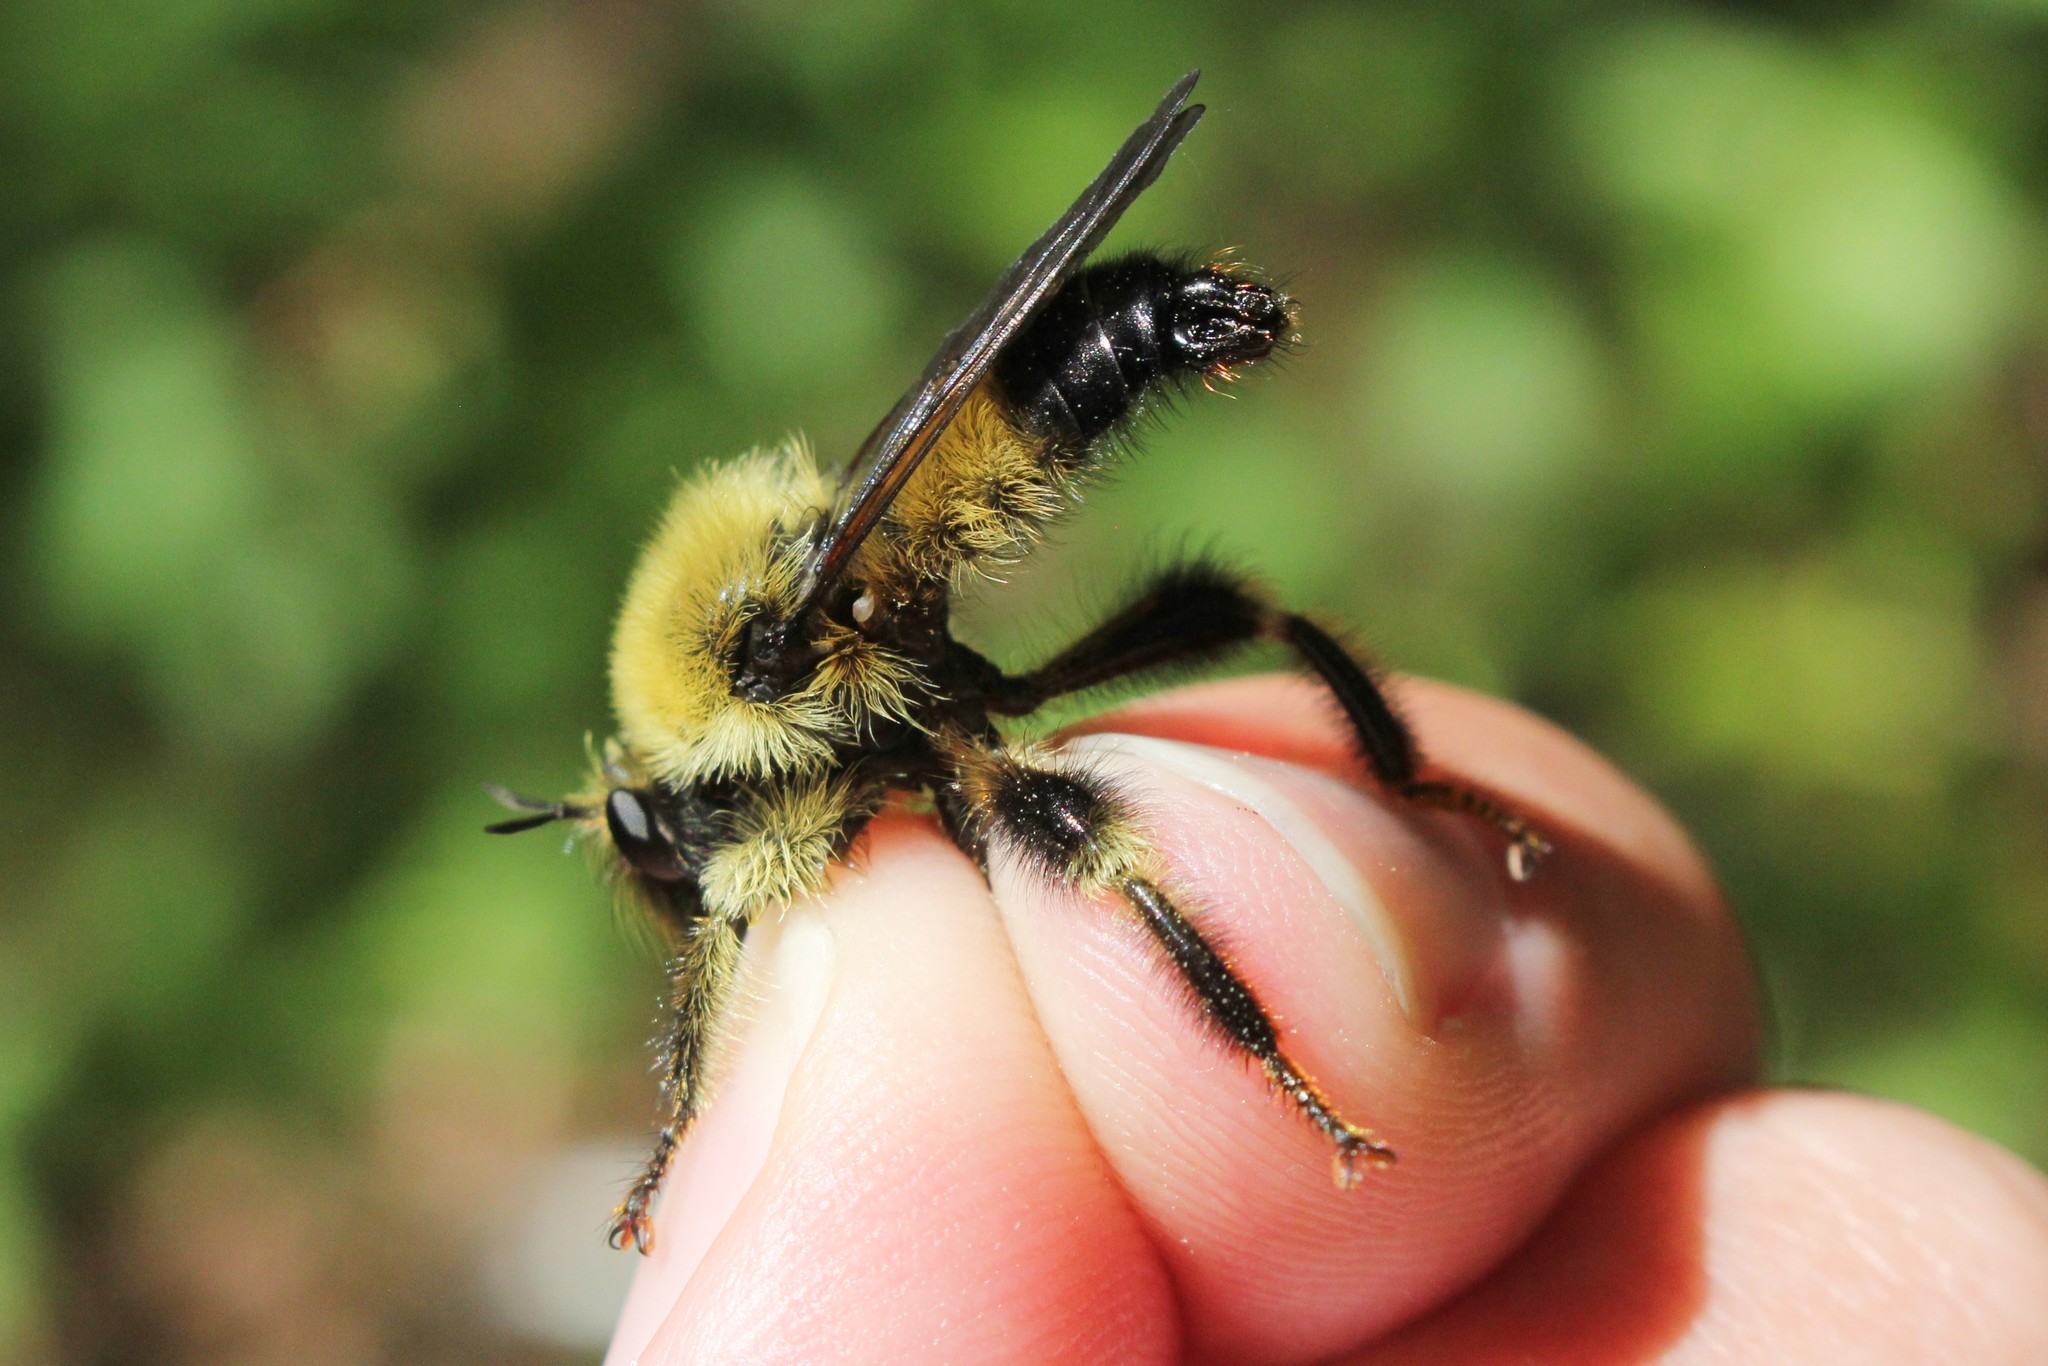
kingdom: Animalia
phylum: Arthropoda
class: Insecta
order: Diptera
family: Asilidae
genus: Laphria
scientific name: Laphria sacrator
